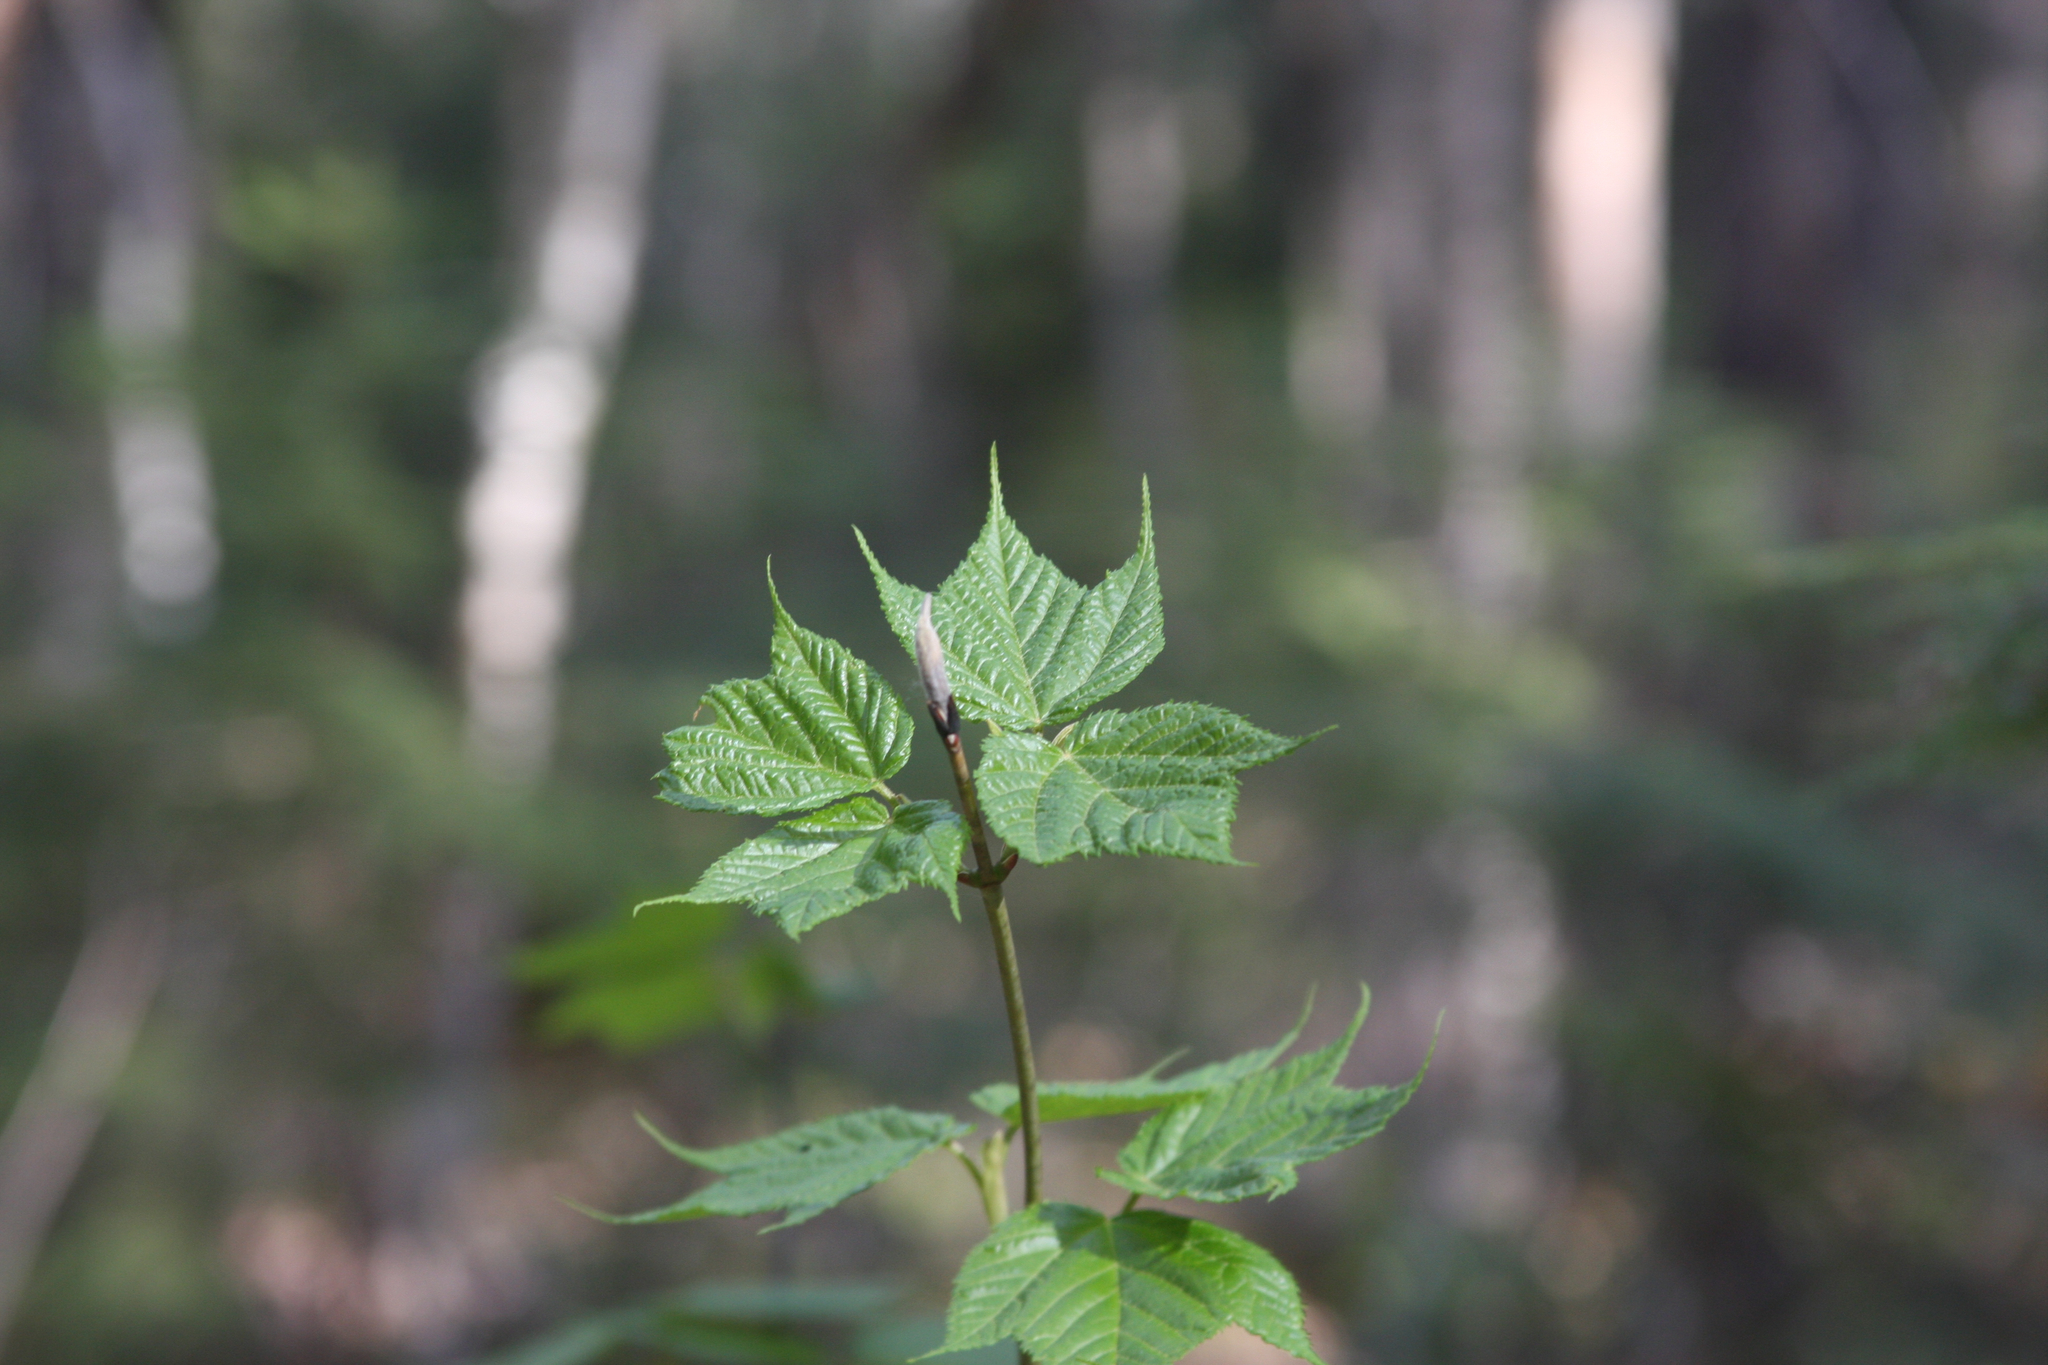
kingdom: Plantae
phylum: Tracheophyta
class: Magnoliopsida
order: Sapindales
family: Sapindaceae
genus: Acer
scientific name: Acer pensylvanicum
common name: Moosewood
